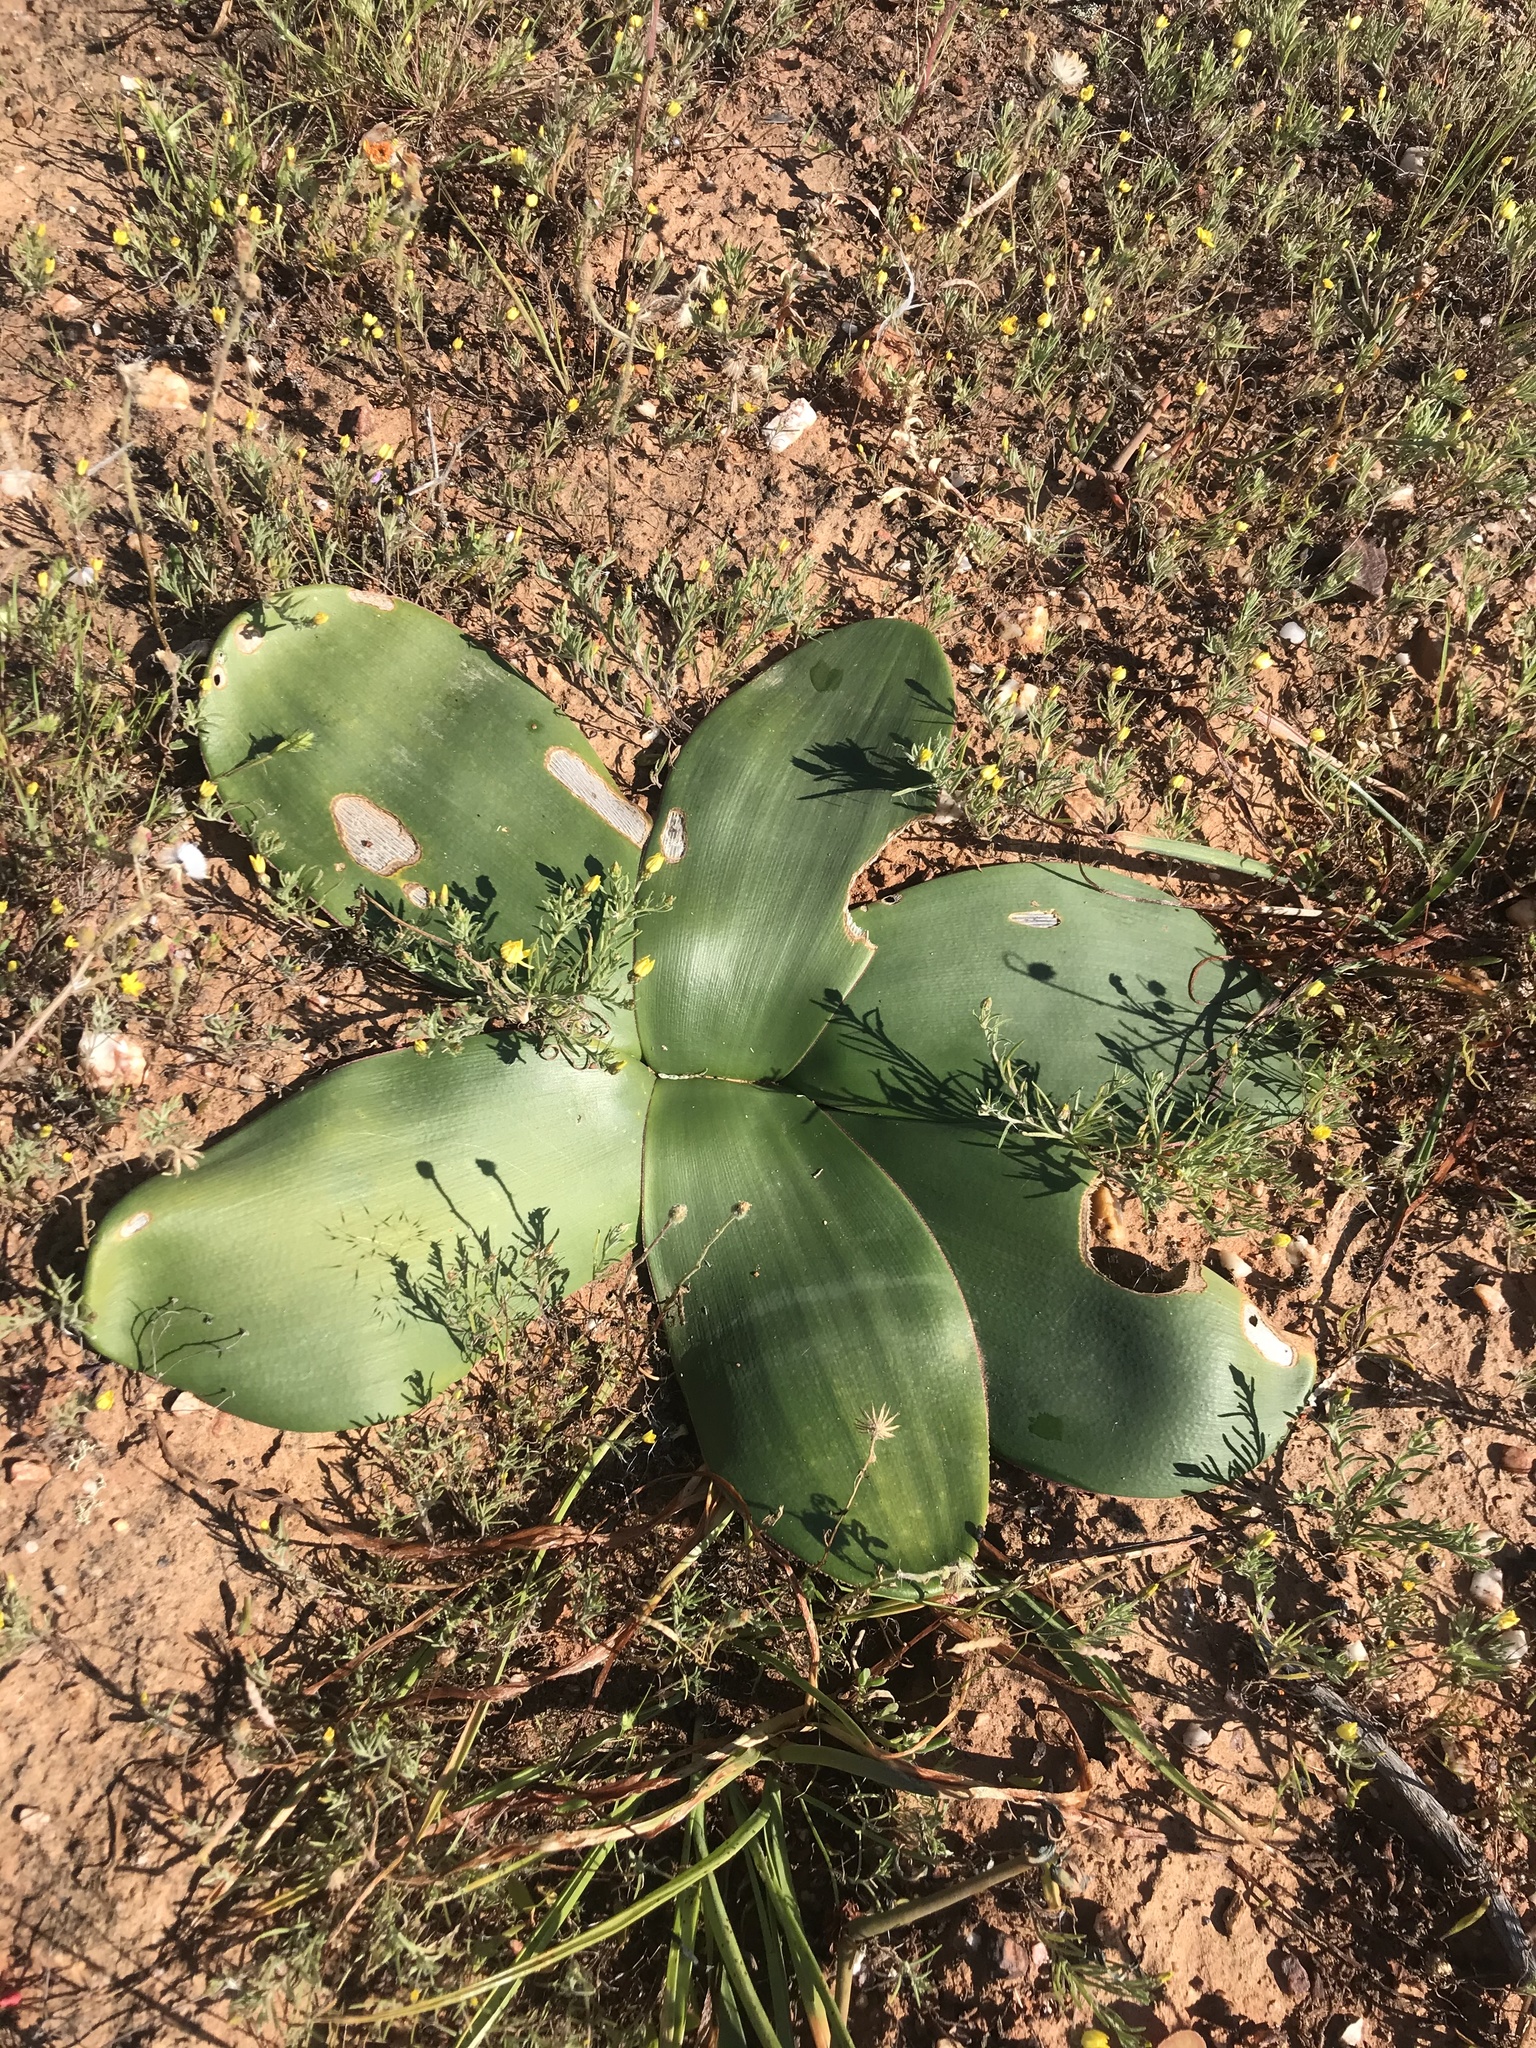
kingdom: Plantae
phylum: Tracheophyta
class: Liliopsida
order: Asparagales
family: Amaryllidaceae
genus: Brunsvigia
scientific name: Brunsvigia bosmaniae
